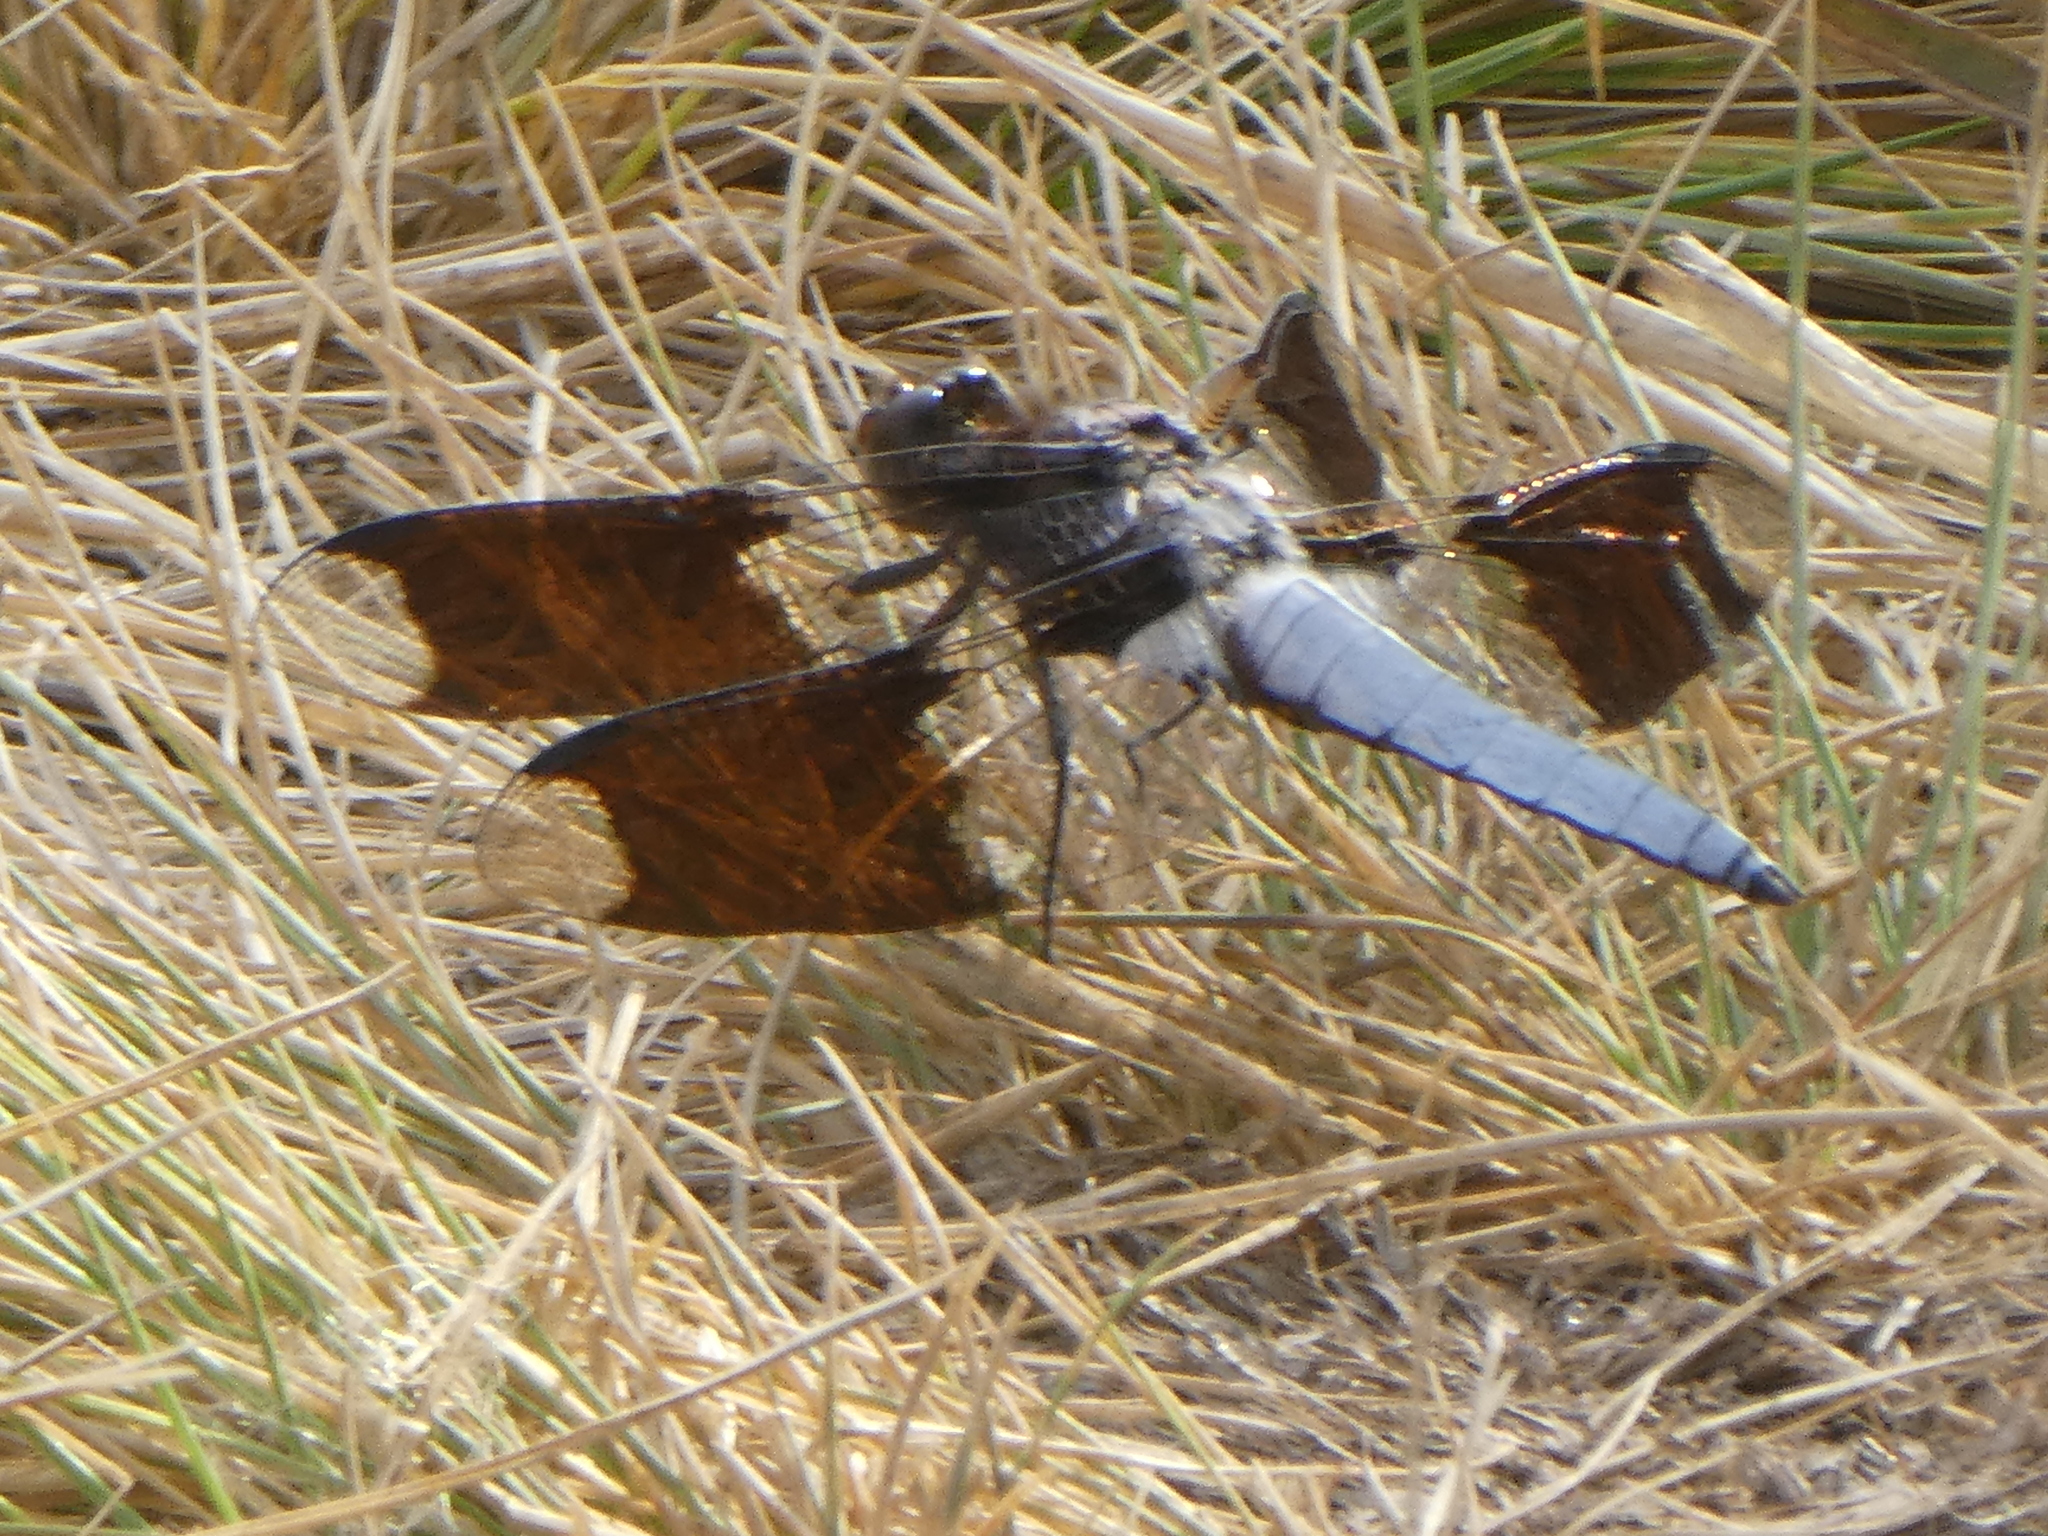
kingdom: Animalia
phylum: Arthropoda
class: Insecta
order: Odonata
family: Libellulidae
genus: Plathemis
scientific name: Plathemis lydia
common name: Common whitetail
